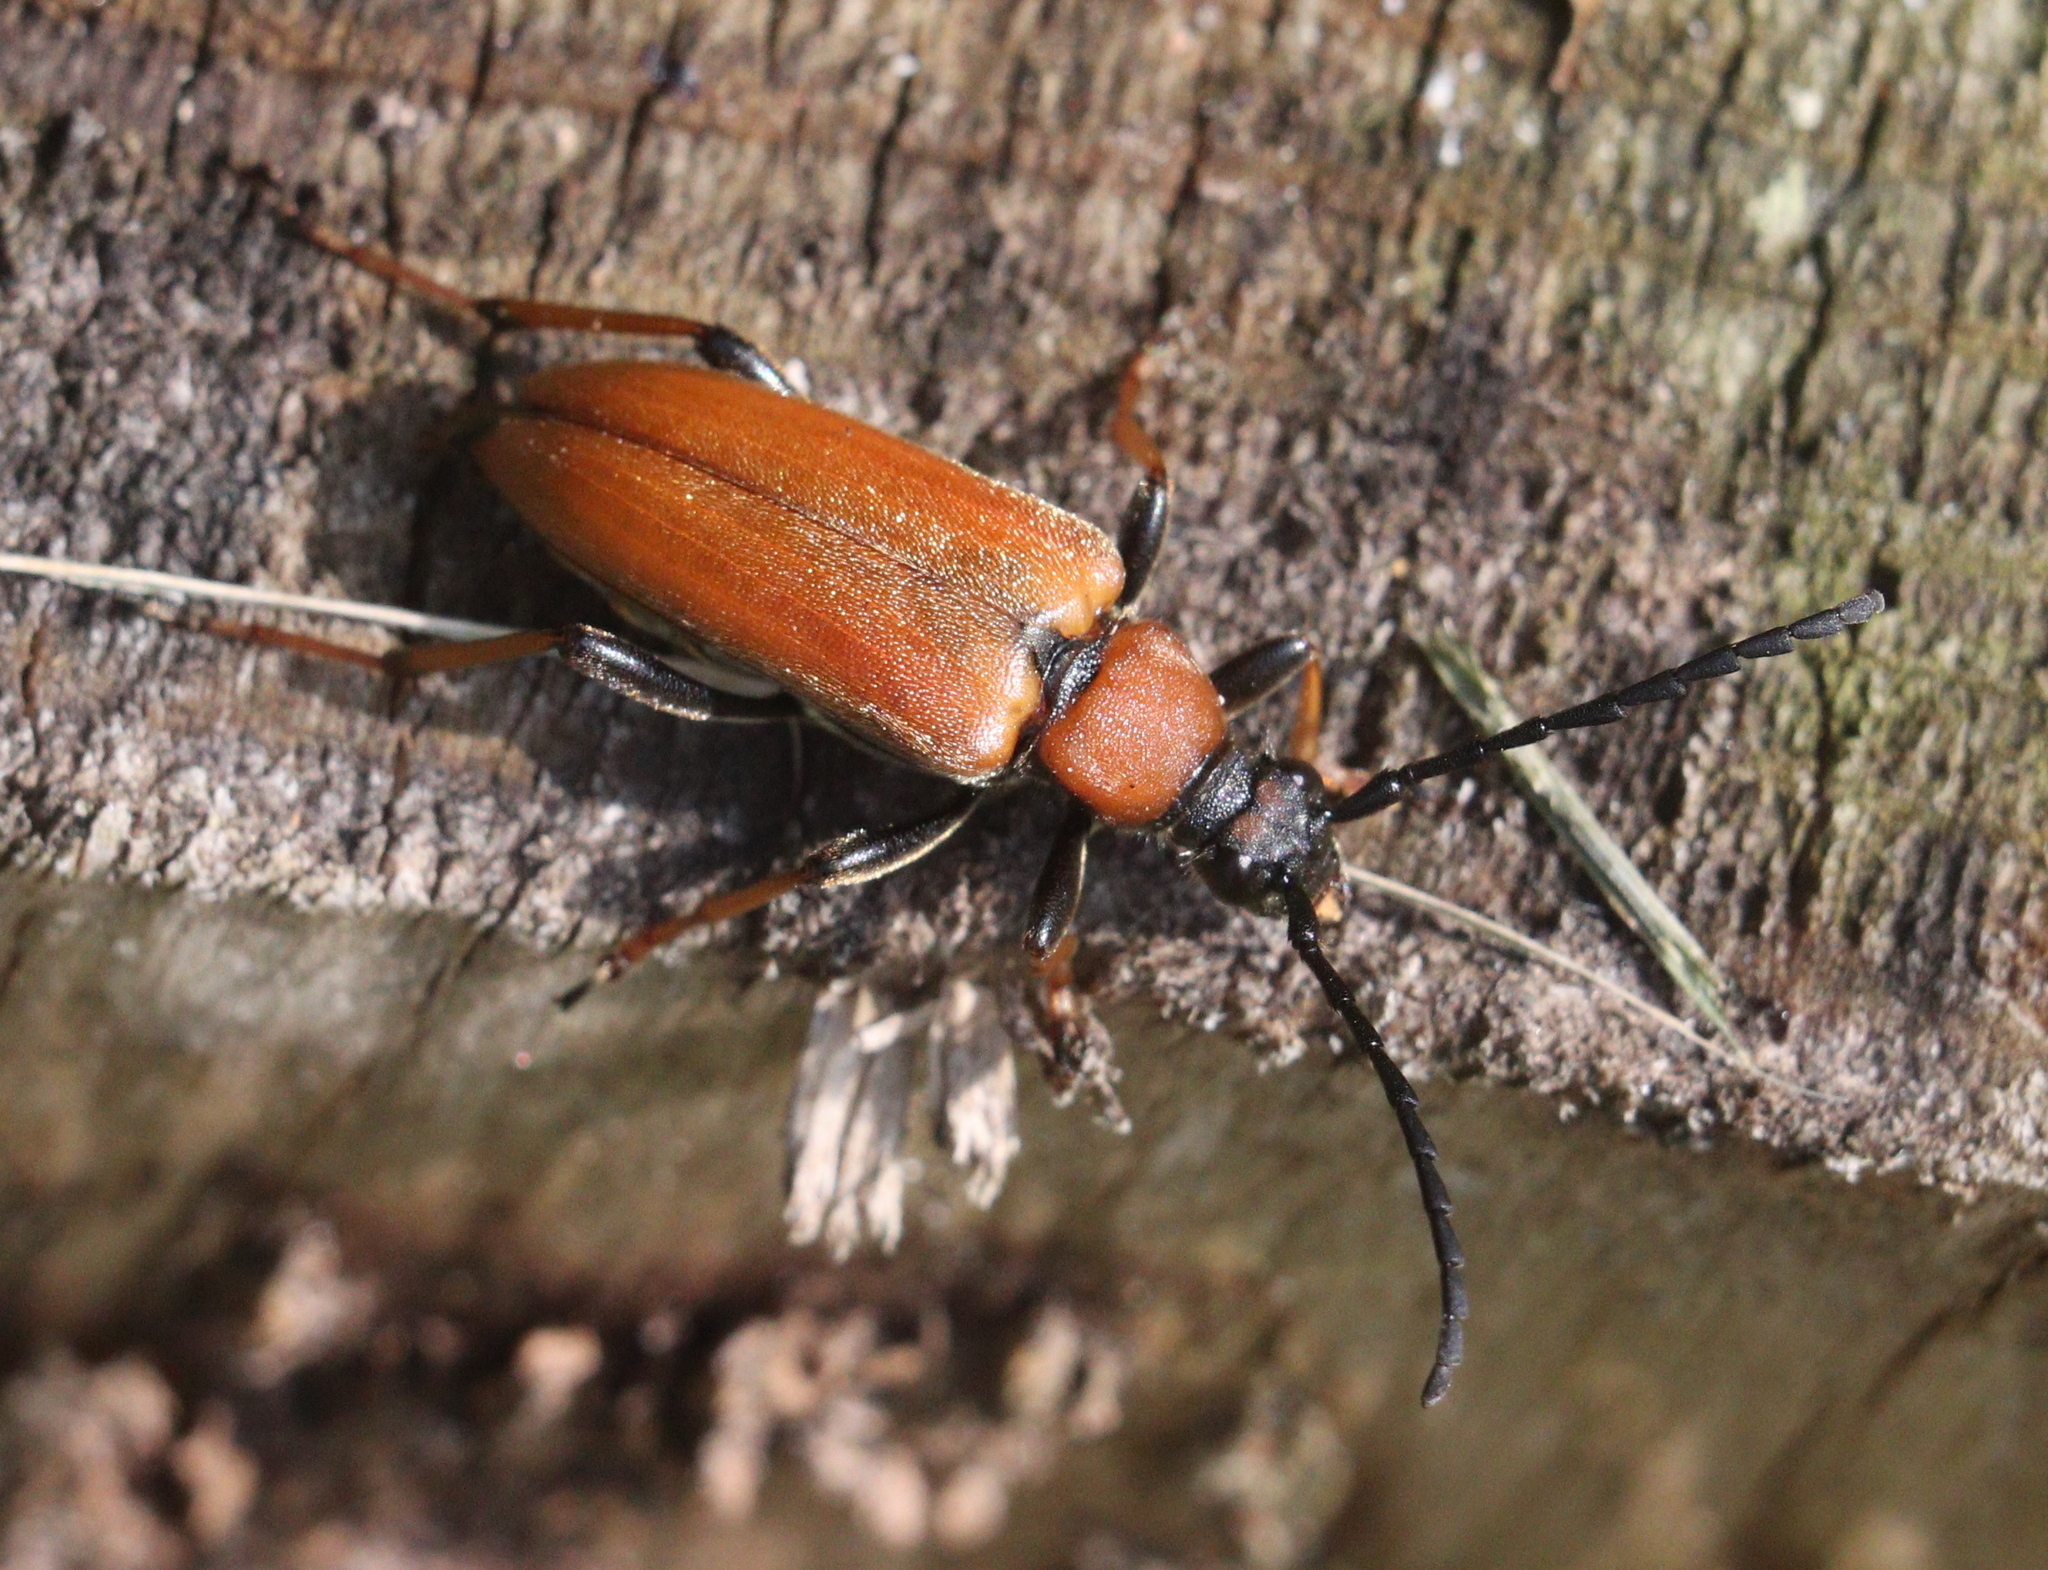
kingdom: Animalia
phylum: Arthropoda
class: Insecta
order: Coleoptera
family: Cerambycidae
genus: Stictoleptura
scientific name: Stictoleptura rubra
